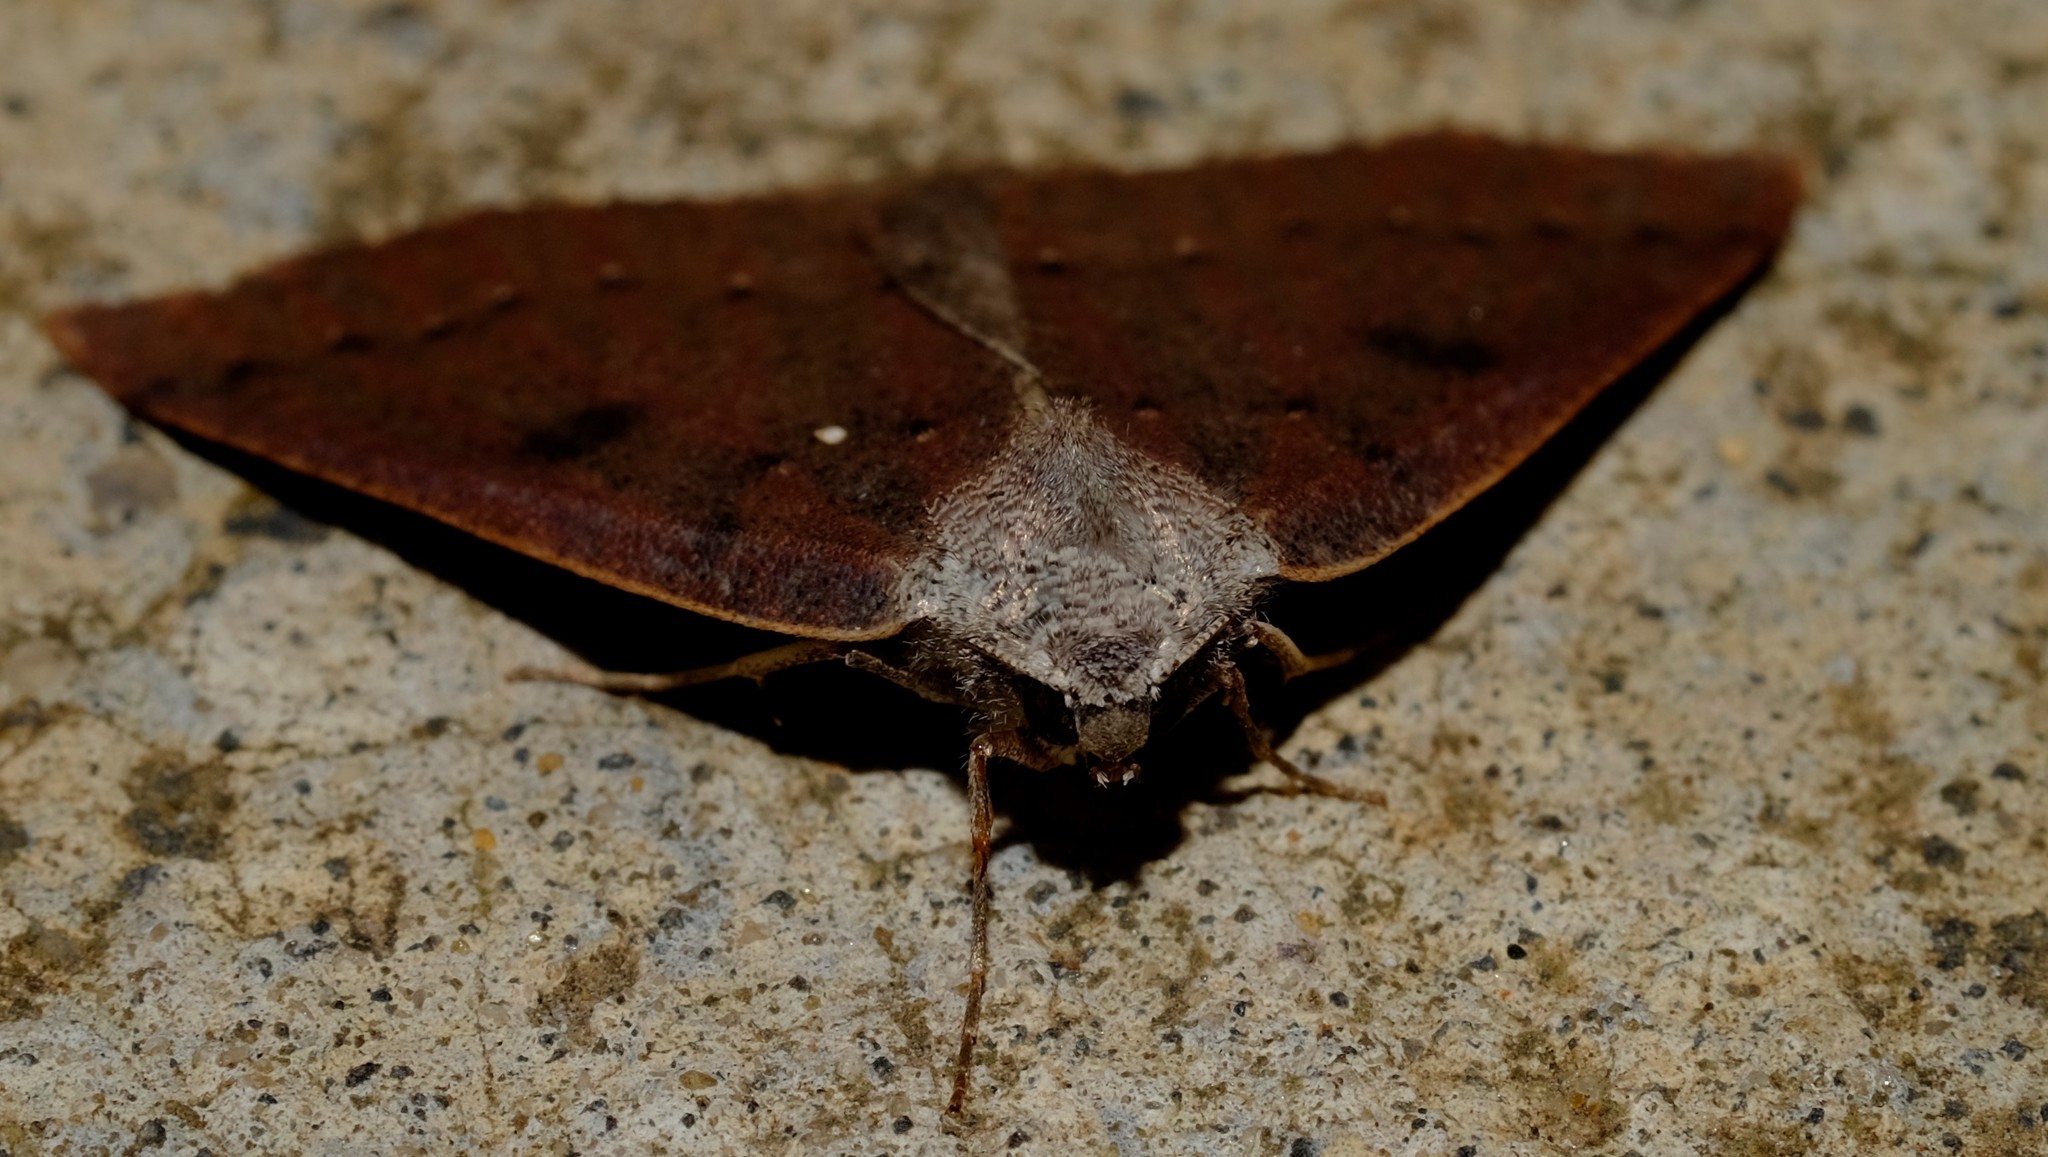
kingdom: Animalia
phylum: Arthropoda
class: Insecta
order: Lepidoptera
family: Geometridae
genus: Androchela
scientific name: Androchela milvaria
